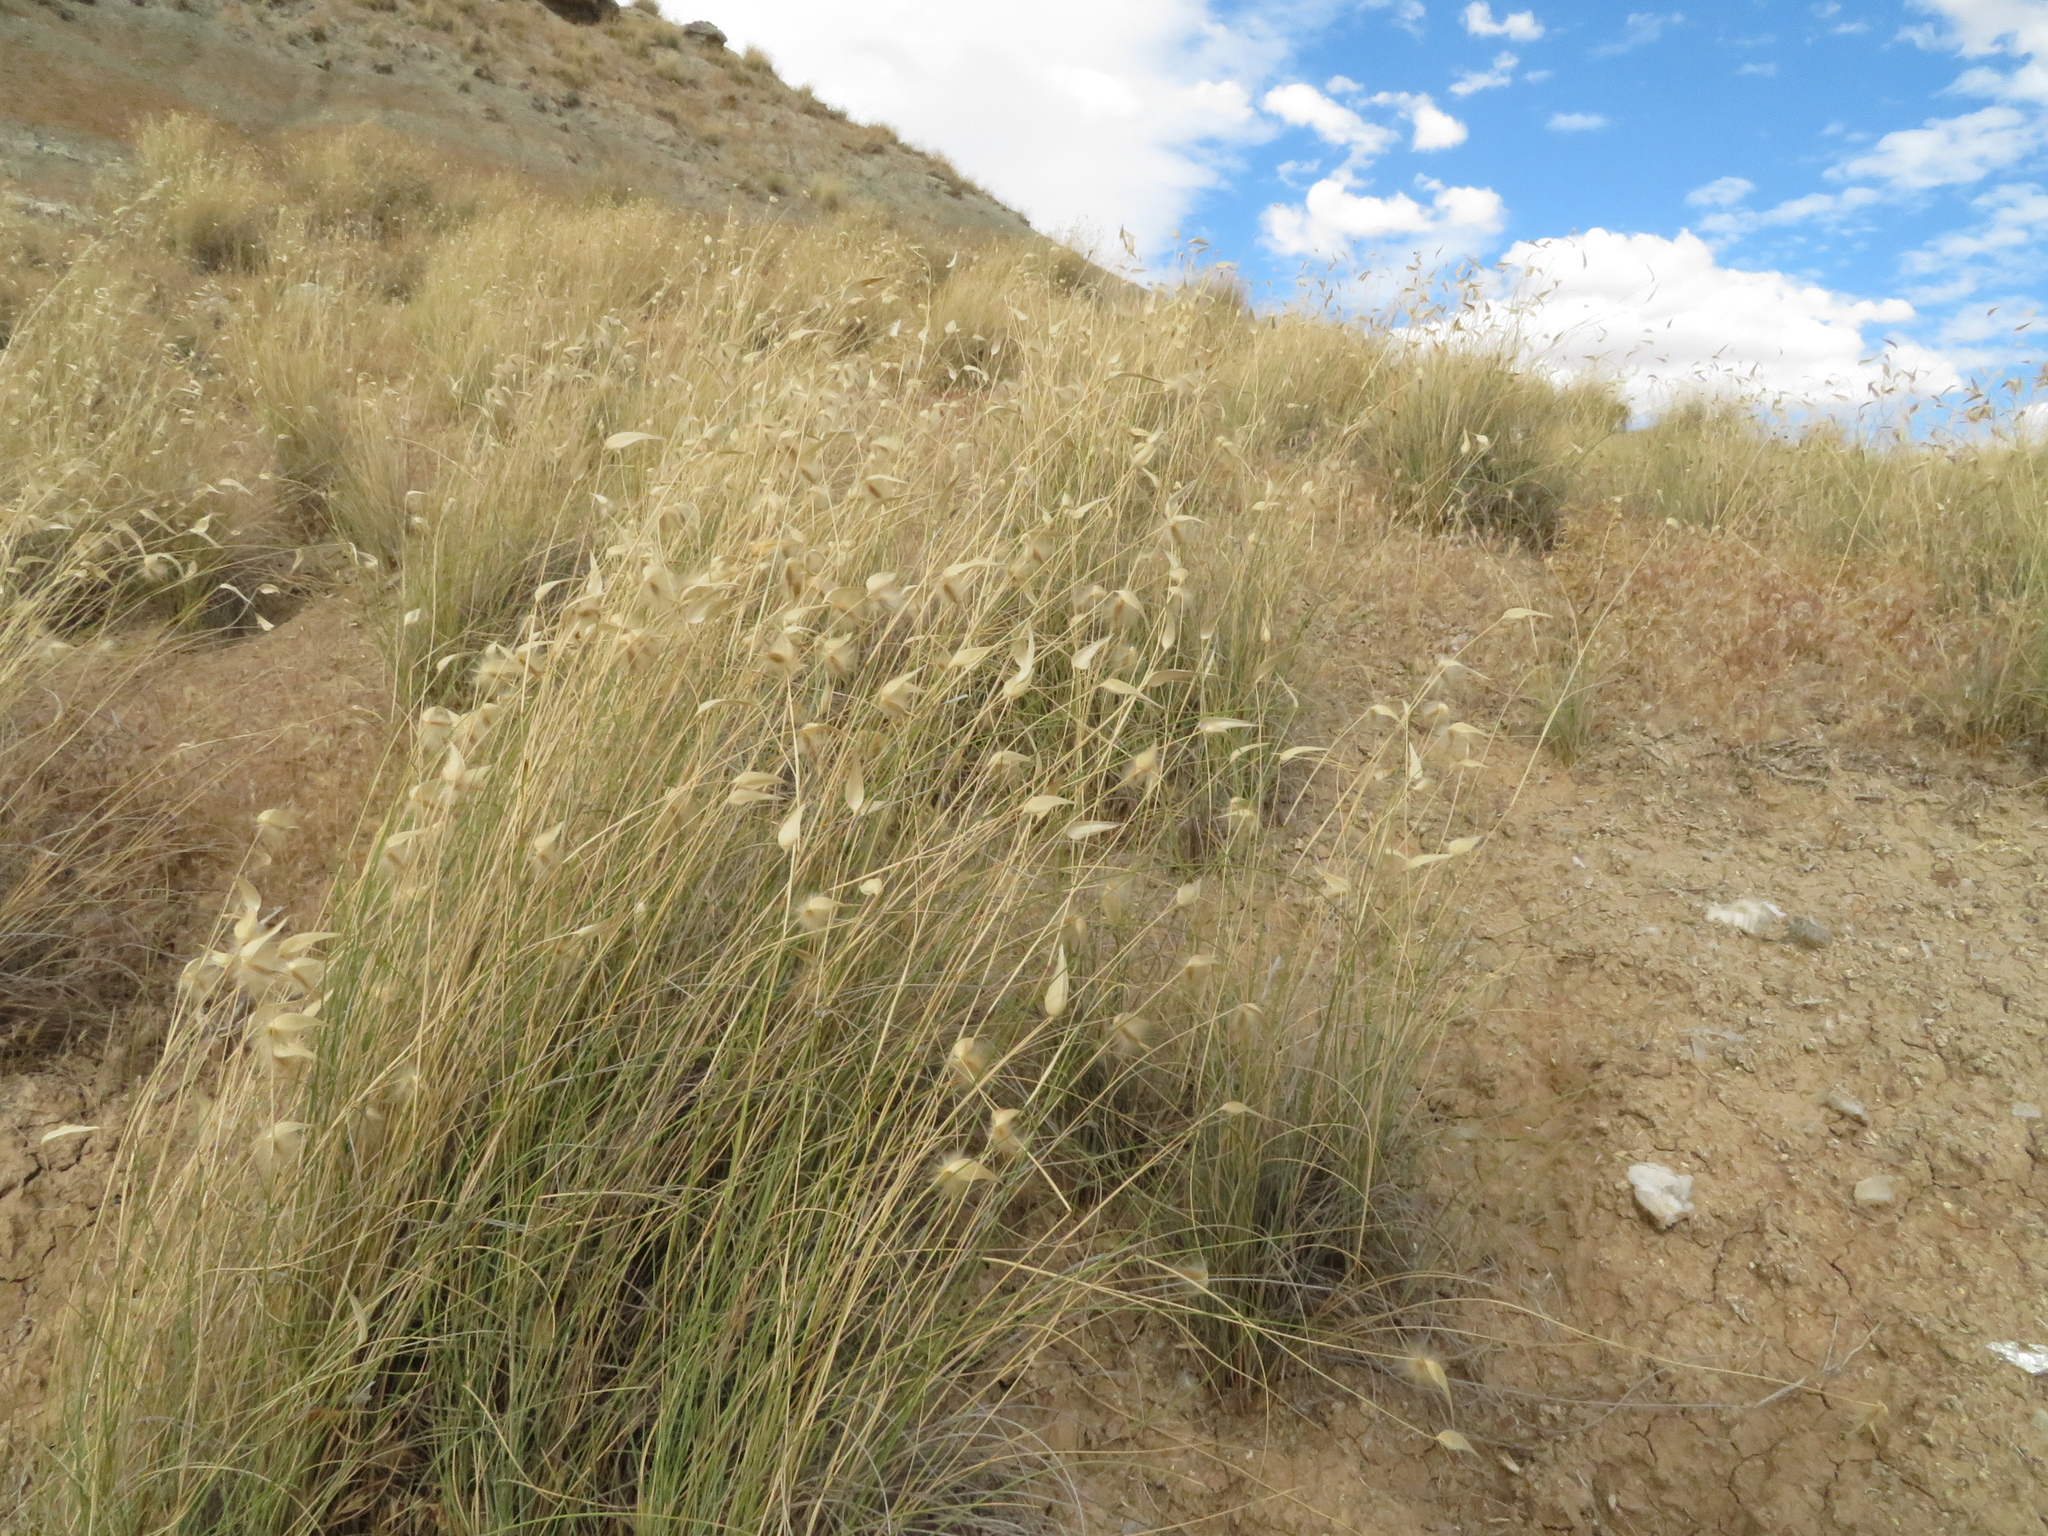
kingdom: Plantae
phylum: Tracheophyta
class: Liliopsida
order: Poales
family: Poaceae
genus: Lygeum
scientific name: Lygeum spartum
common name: Albardine
